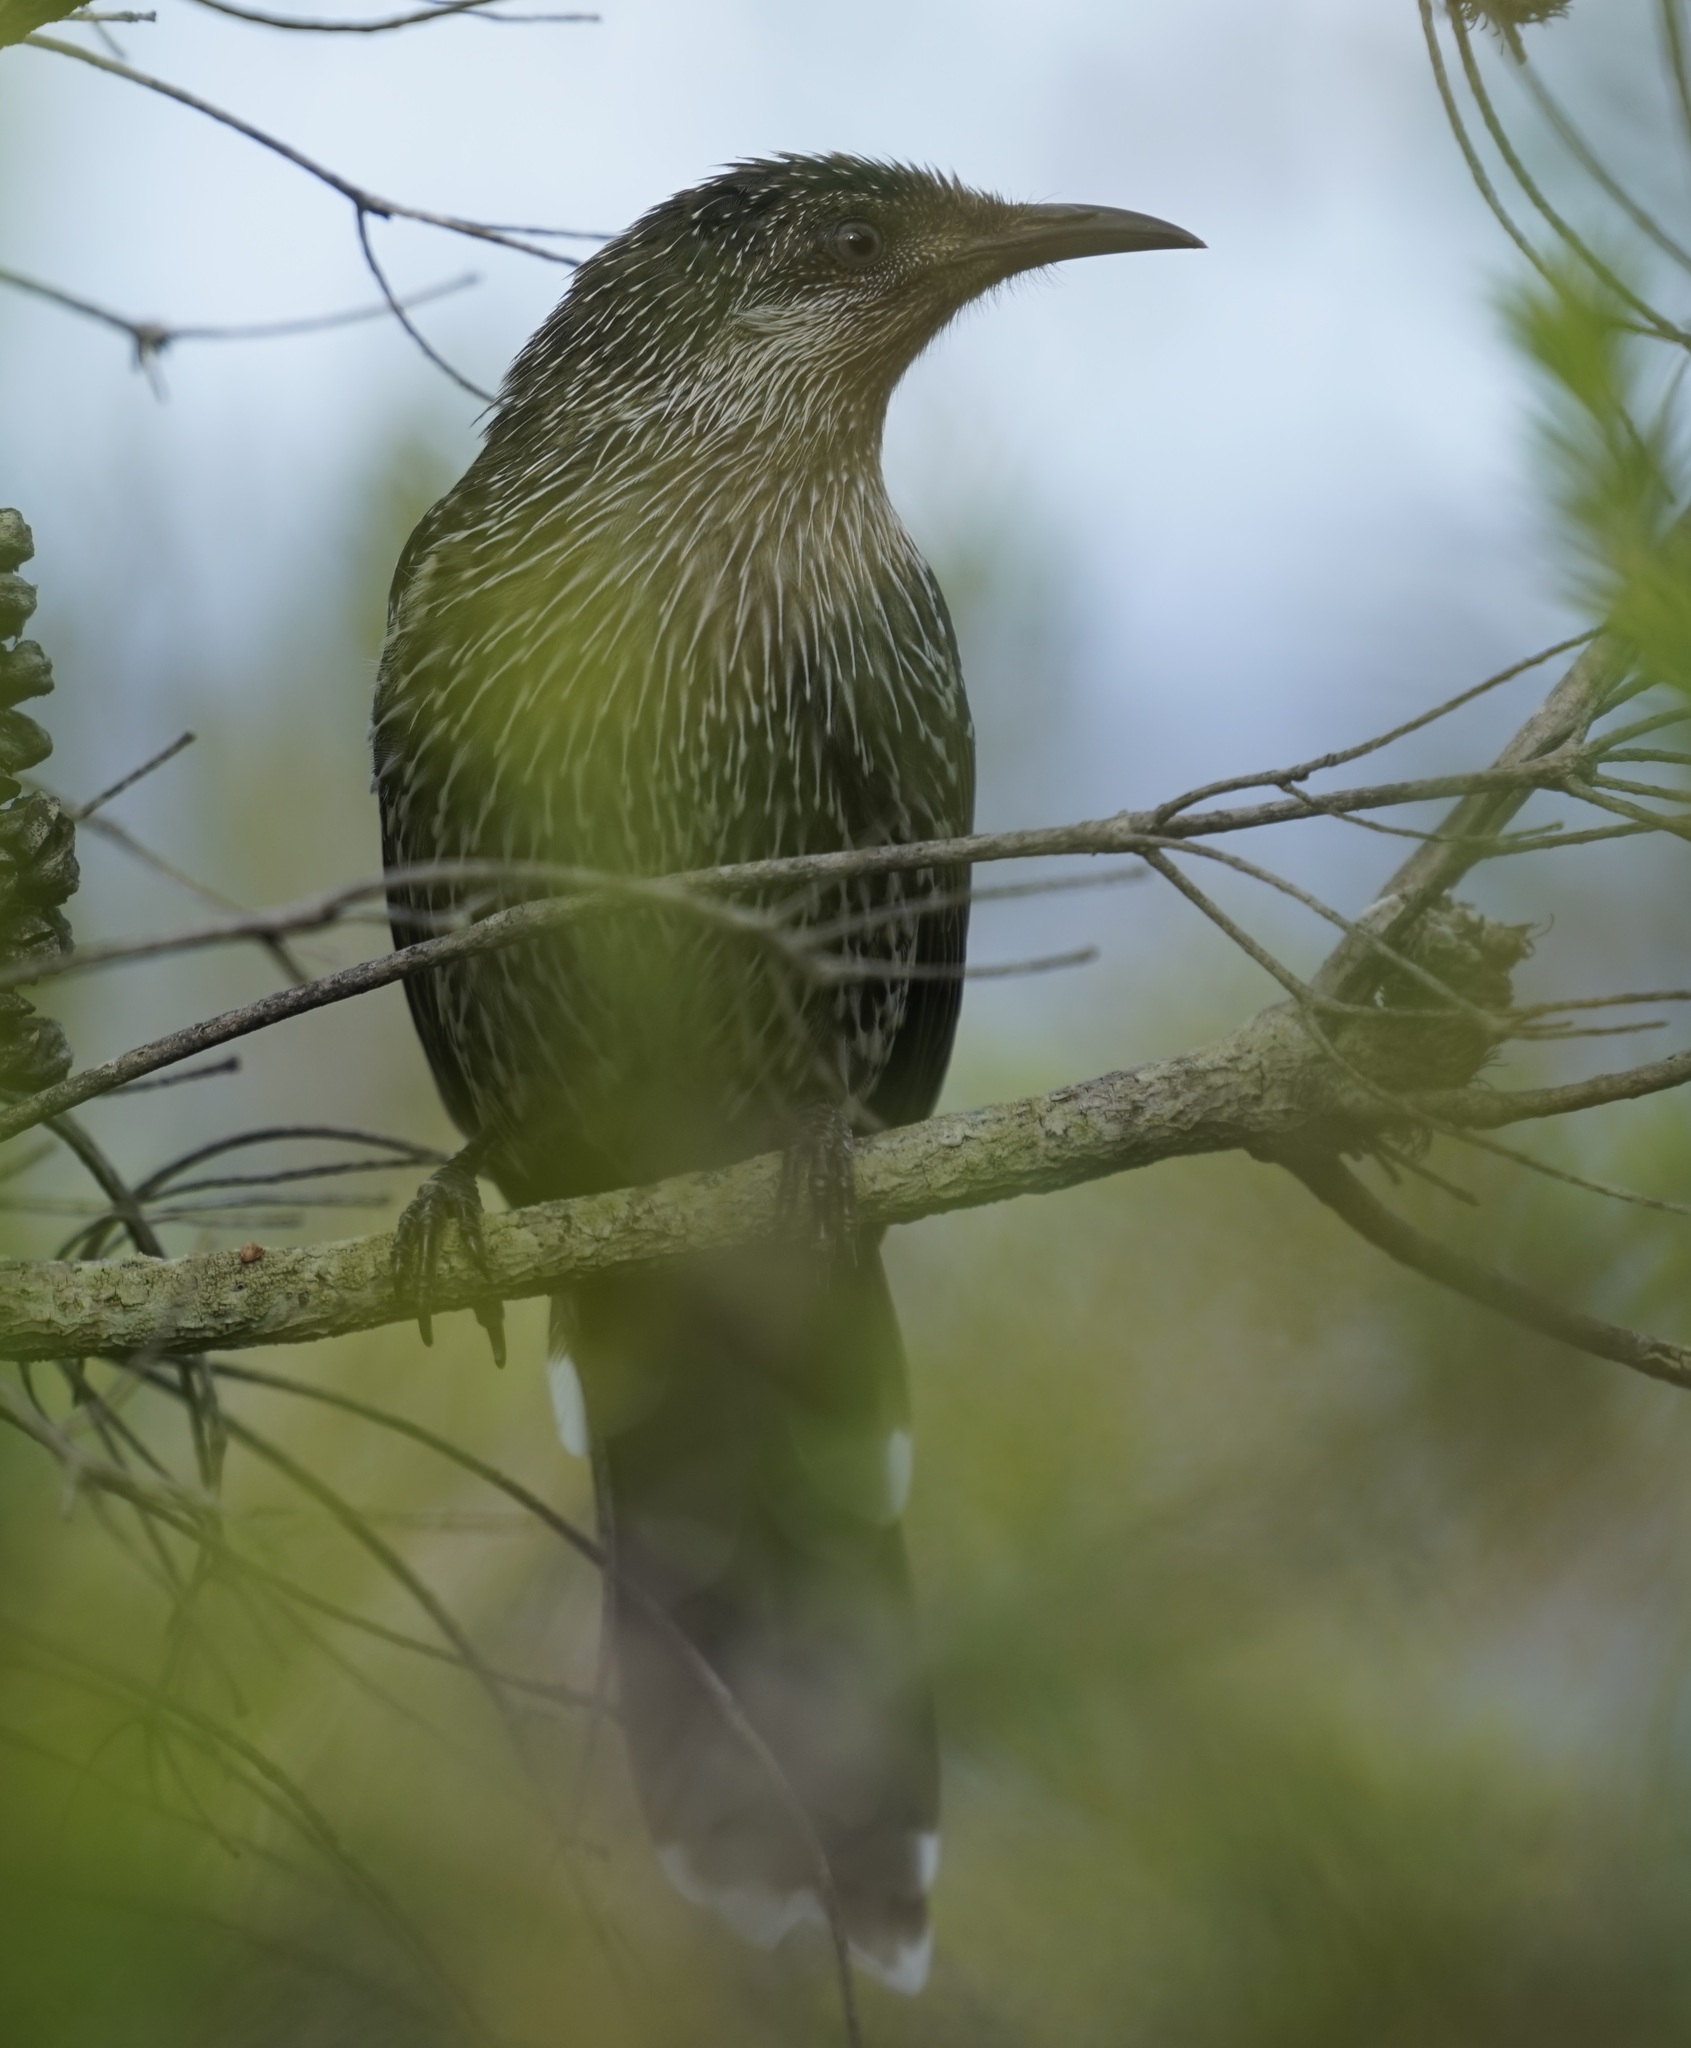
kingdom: Animalia
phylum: Chordata
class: Aves
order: Passeriformes
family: Meliphagidae
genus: Anthochaera
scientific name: Anthochaera chrysoptera
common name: Little wattlebird
